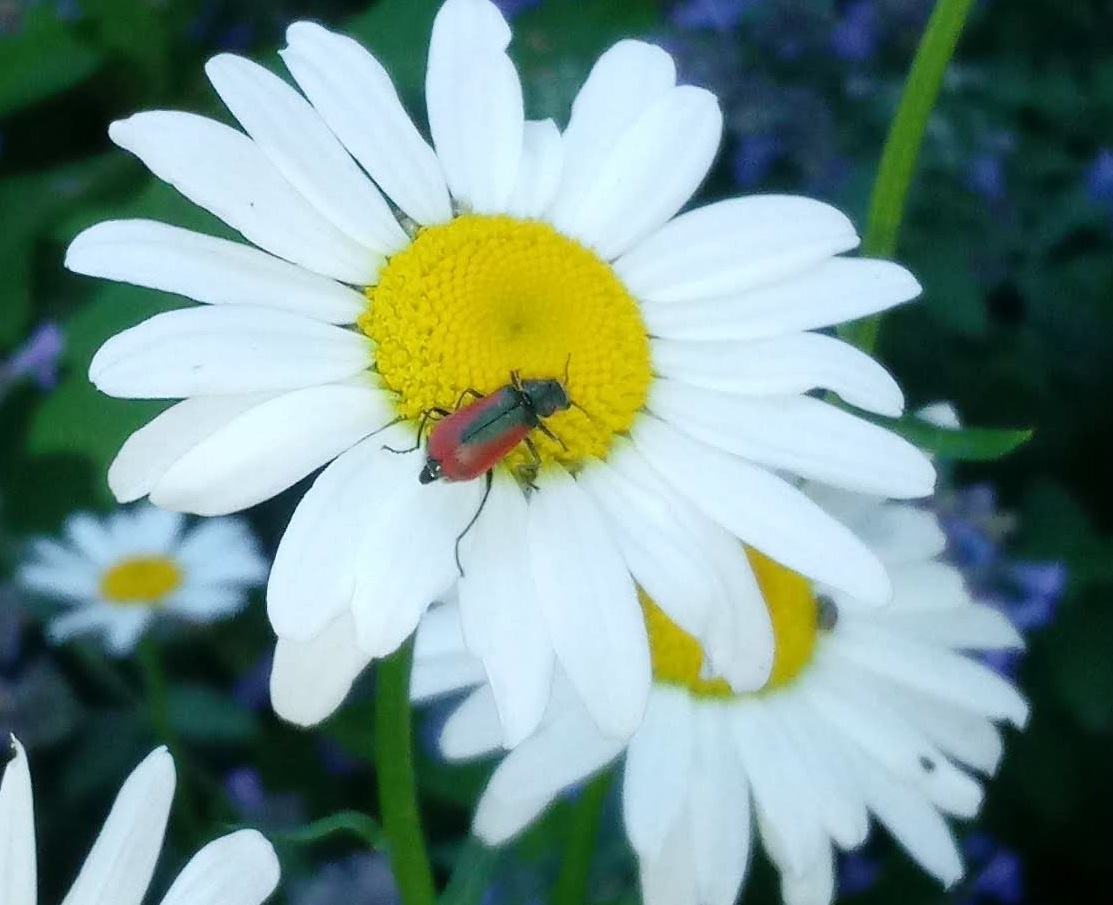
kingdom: Animalia
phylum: Arthropoda
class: Insecta
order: Coleoptera
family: Melyridae
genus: Malachius
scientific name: Malachius aeneus
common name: Scarlet malachite beetle
